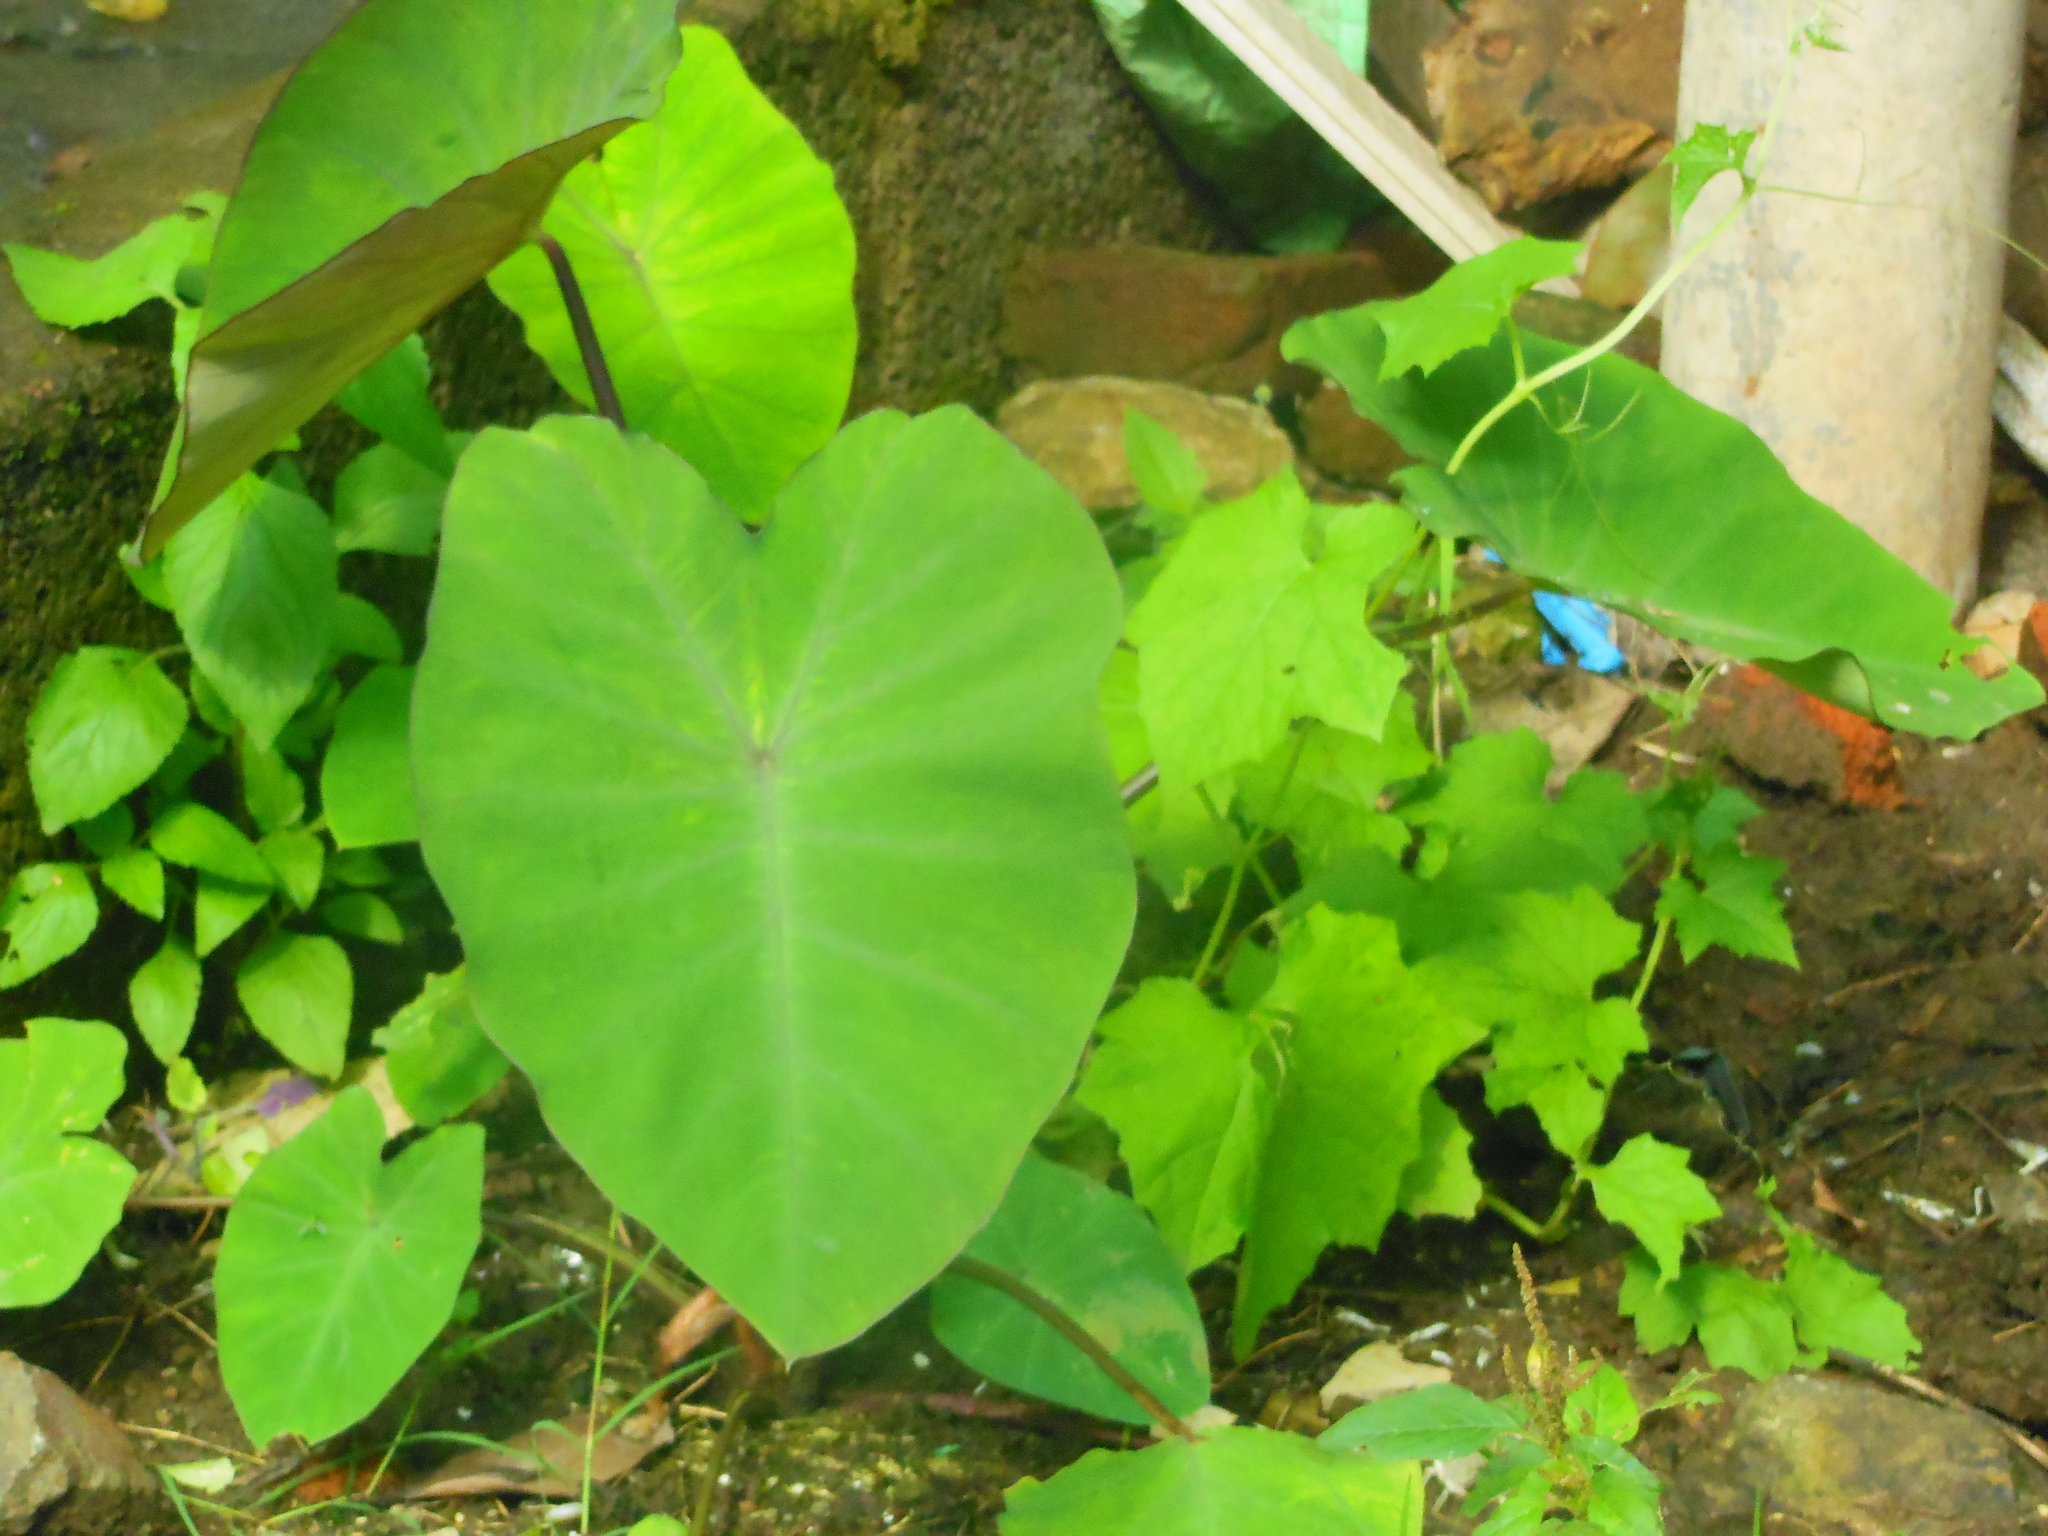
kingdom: Plantae
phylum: Tracheophyta
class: Liliopsida
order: Alismatales
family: Araceae
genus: Colocasia
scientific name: Colocasia esculenta
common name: Taro
